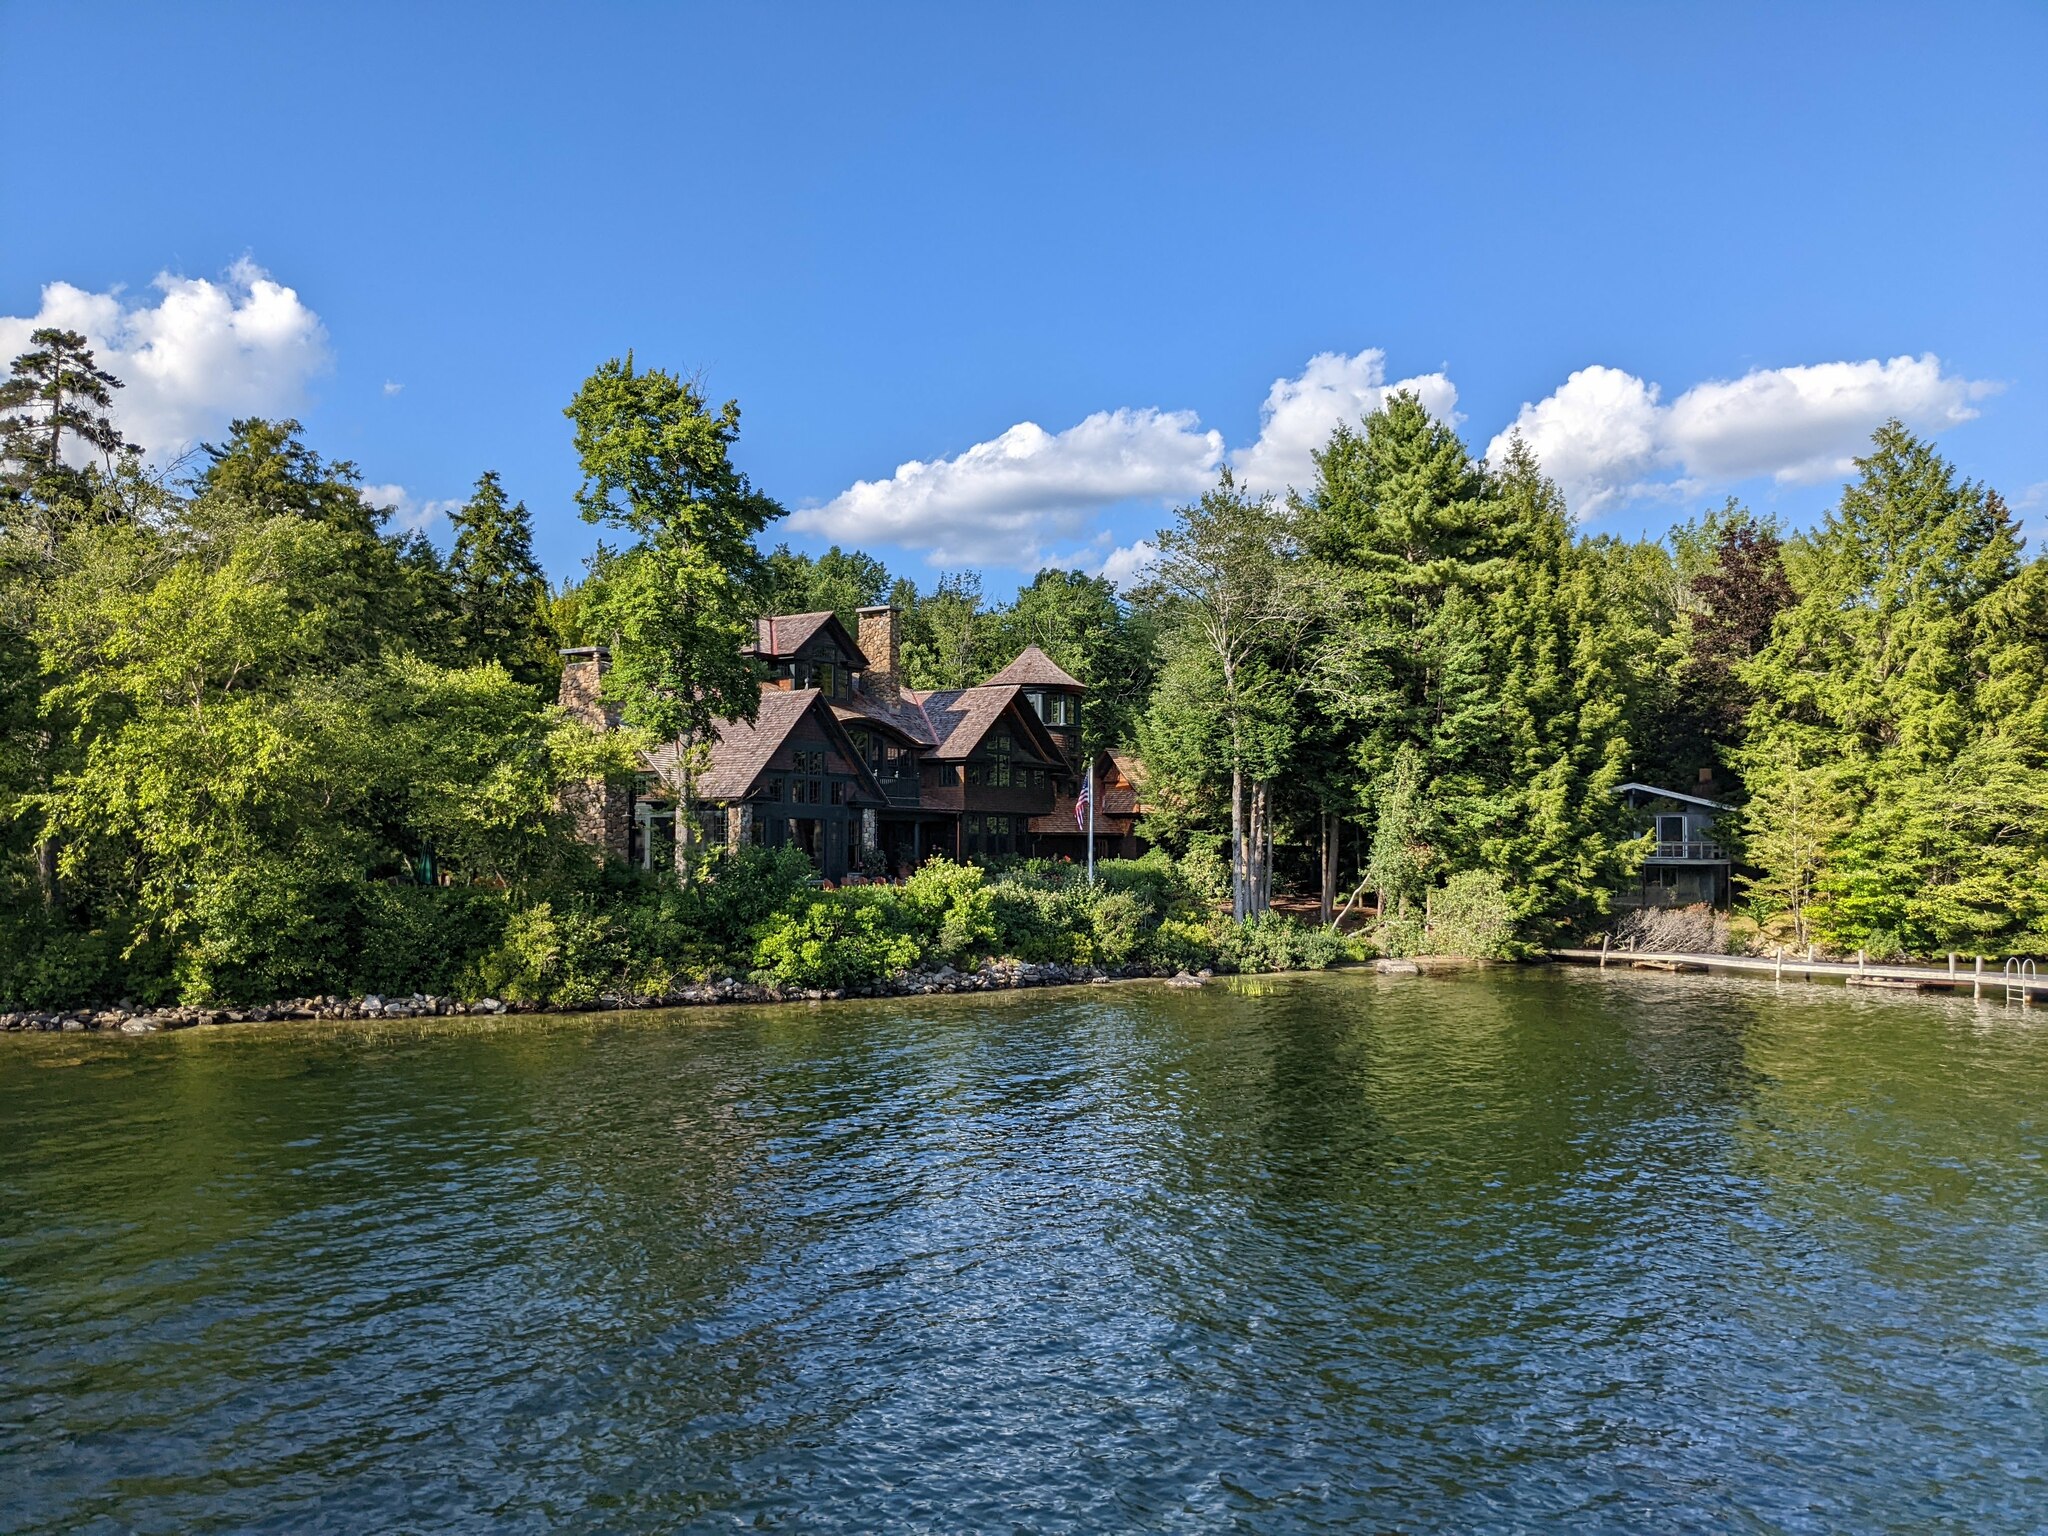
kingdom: Plantae
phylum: Tracheophyta
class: Pinopsida
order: Pinales
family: Pinaceae
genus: Pinus
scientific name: Pinus strobus
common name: Weymouth pine
